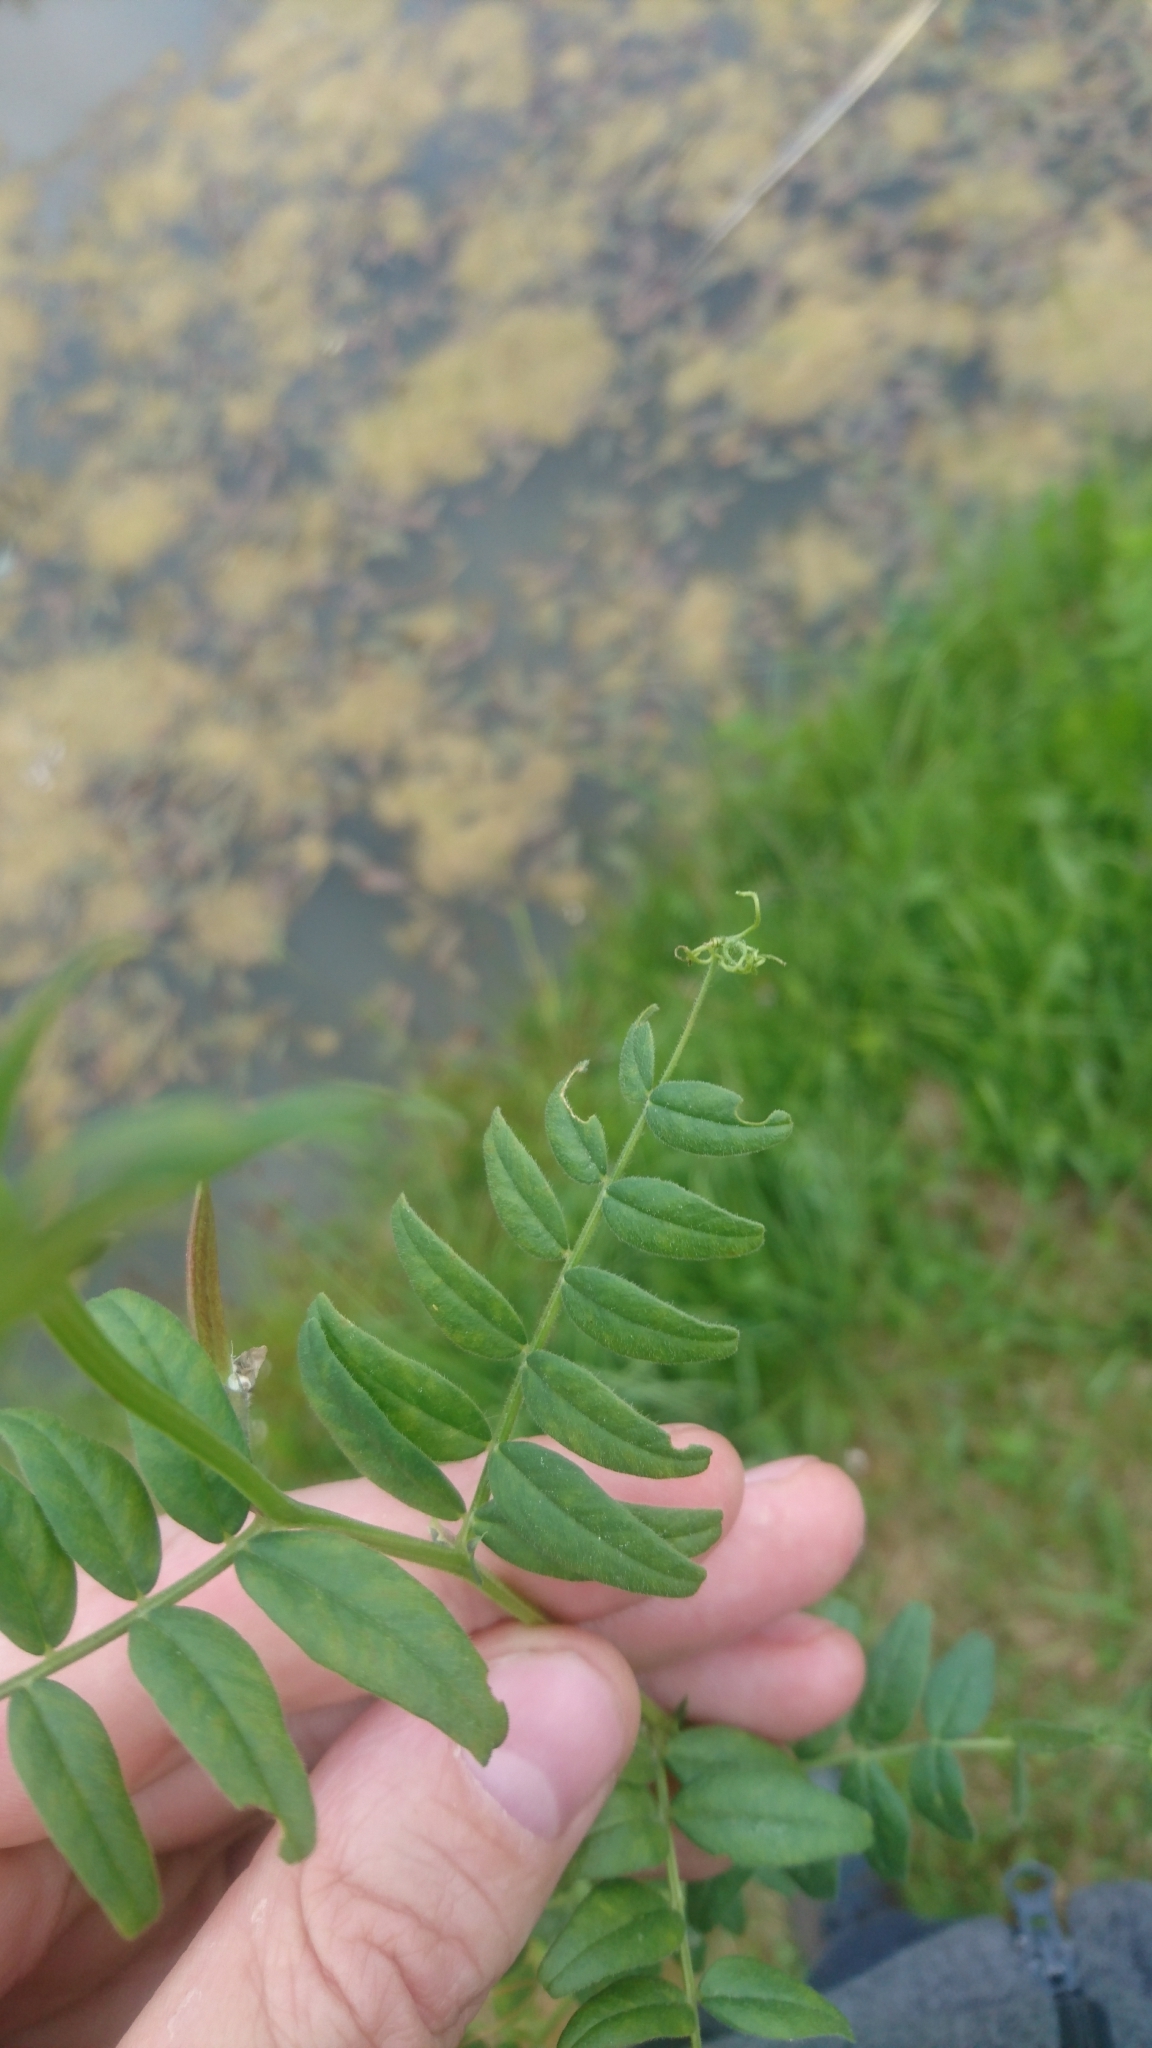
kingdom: Plantae
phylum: Tracheophyta
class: Magnoliopsida
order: Fabales
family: Fabaceae
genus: Vicia
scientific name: Vicia sepium
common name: Bush vetch
